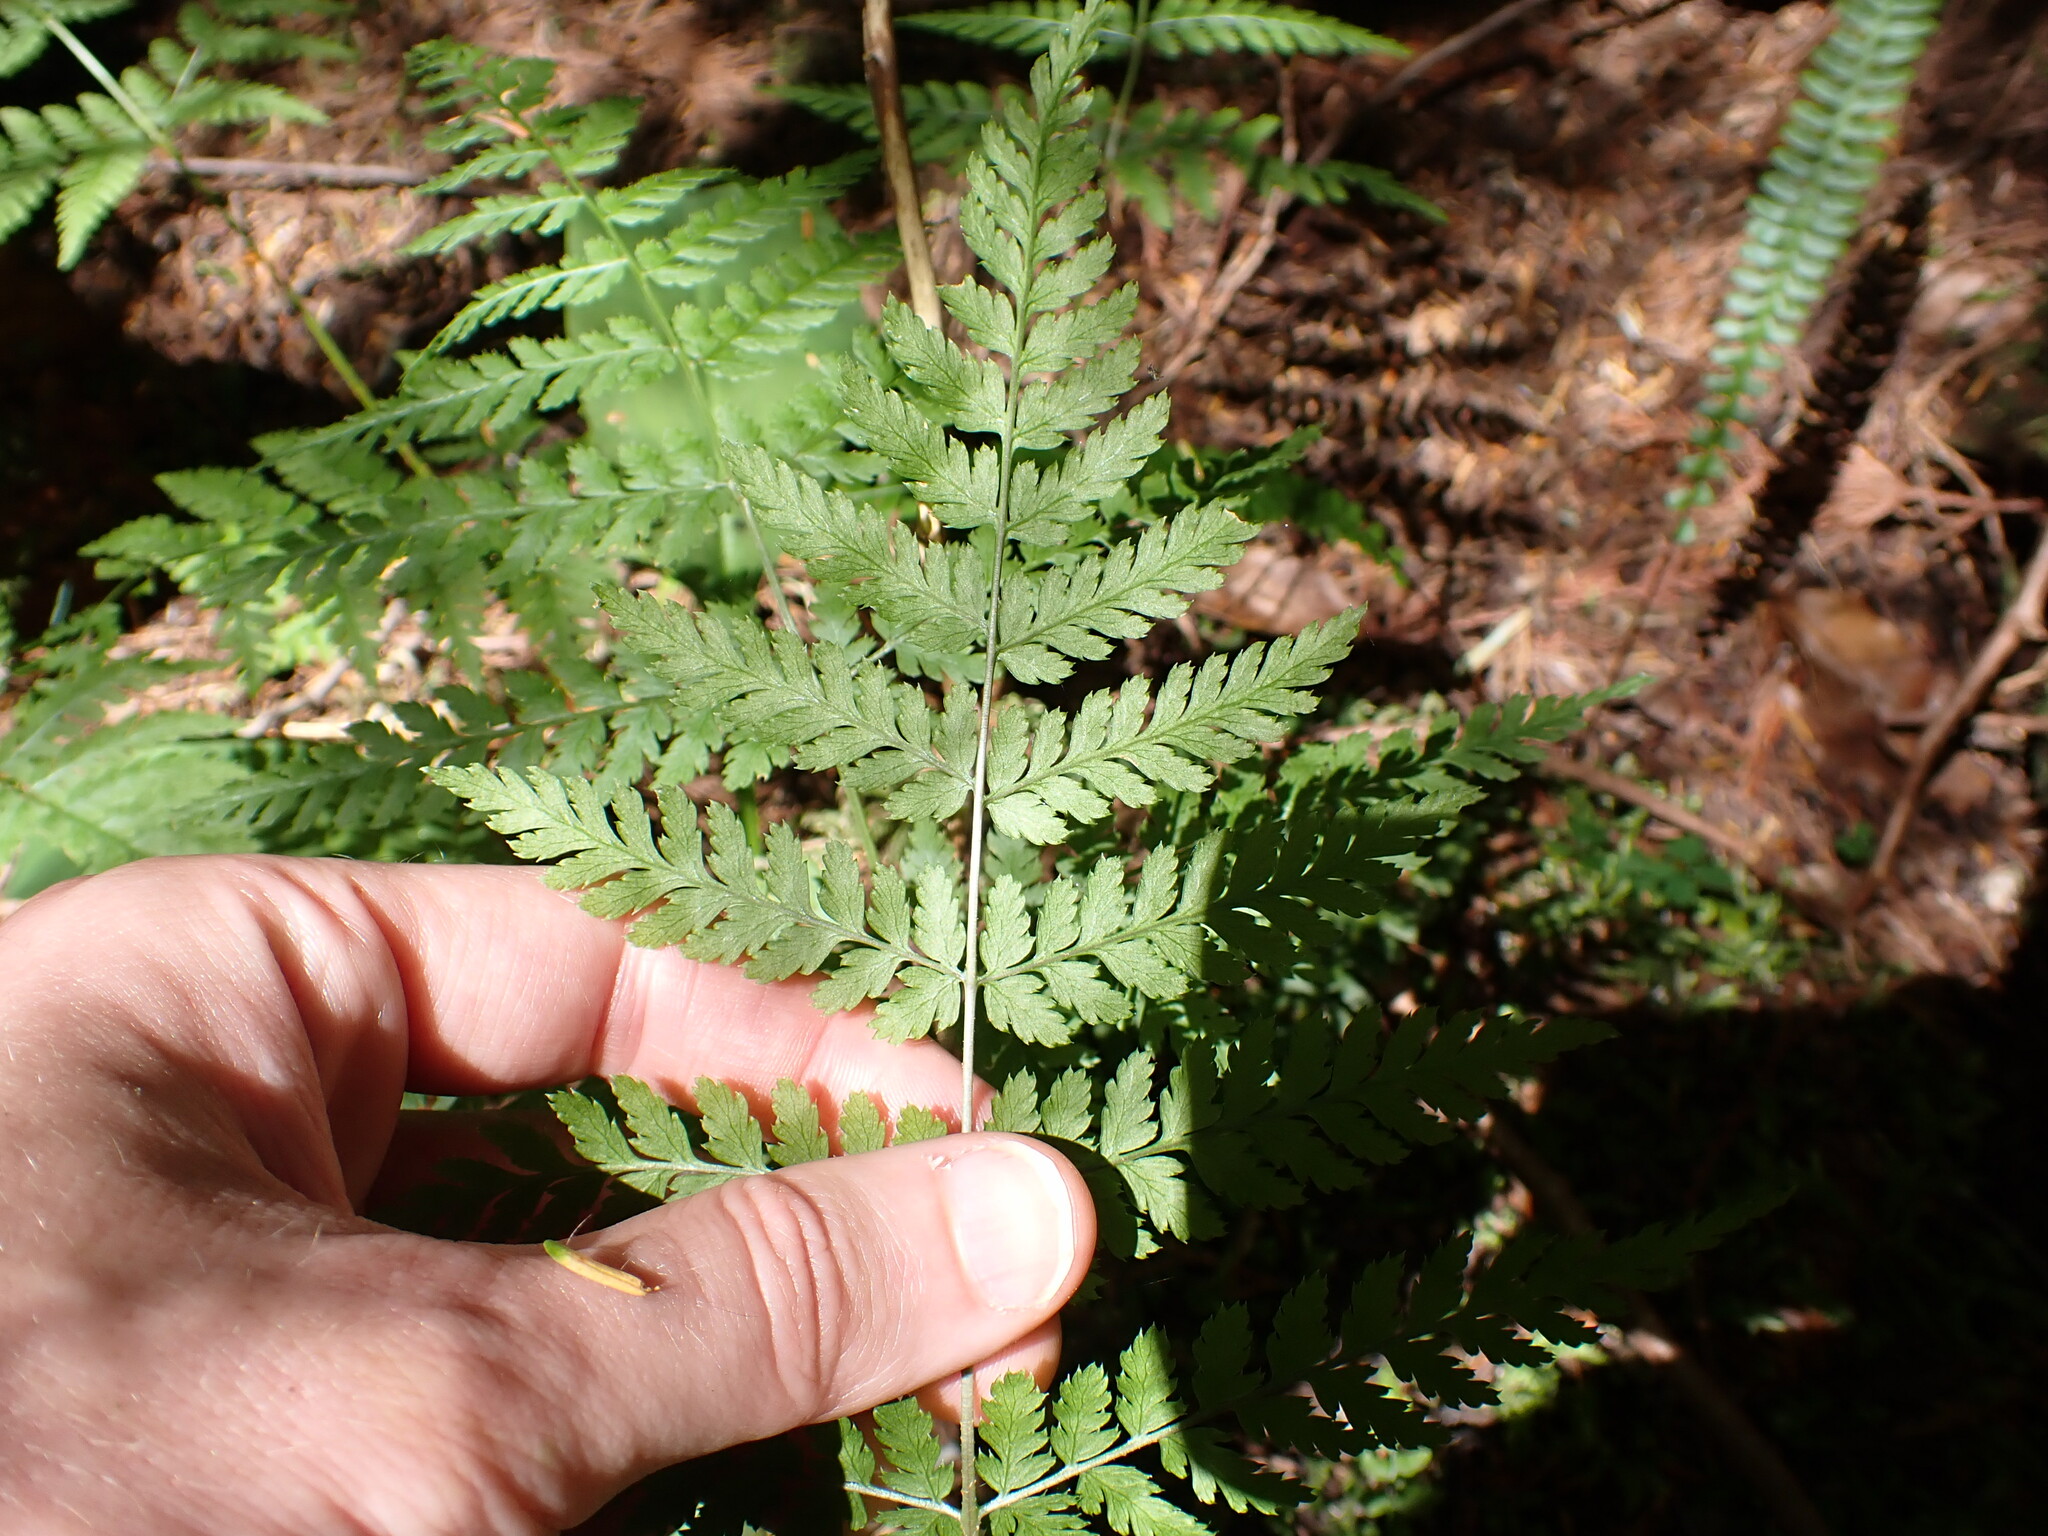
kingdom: Plantae
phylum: Tracheophyta
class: Polypodiopsida
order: Polypodiales
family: Dryopteridaceae
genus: Dryopteris
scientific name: Dryopteris expansa
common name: Northern buckler fern
